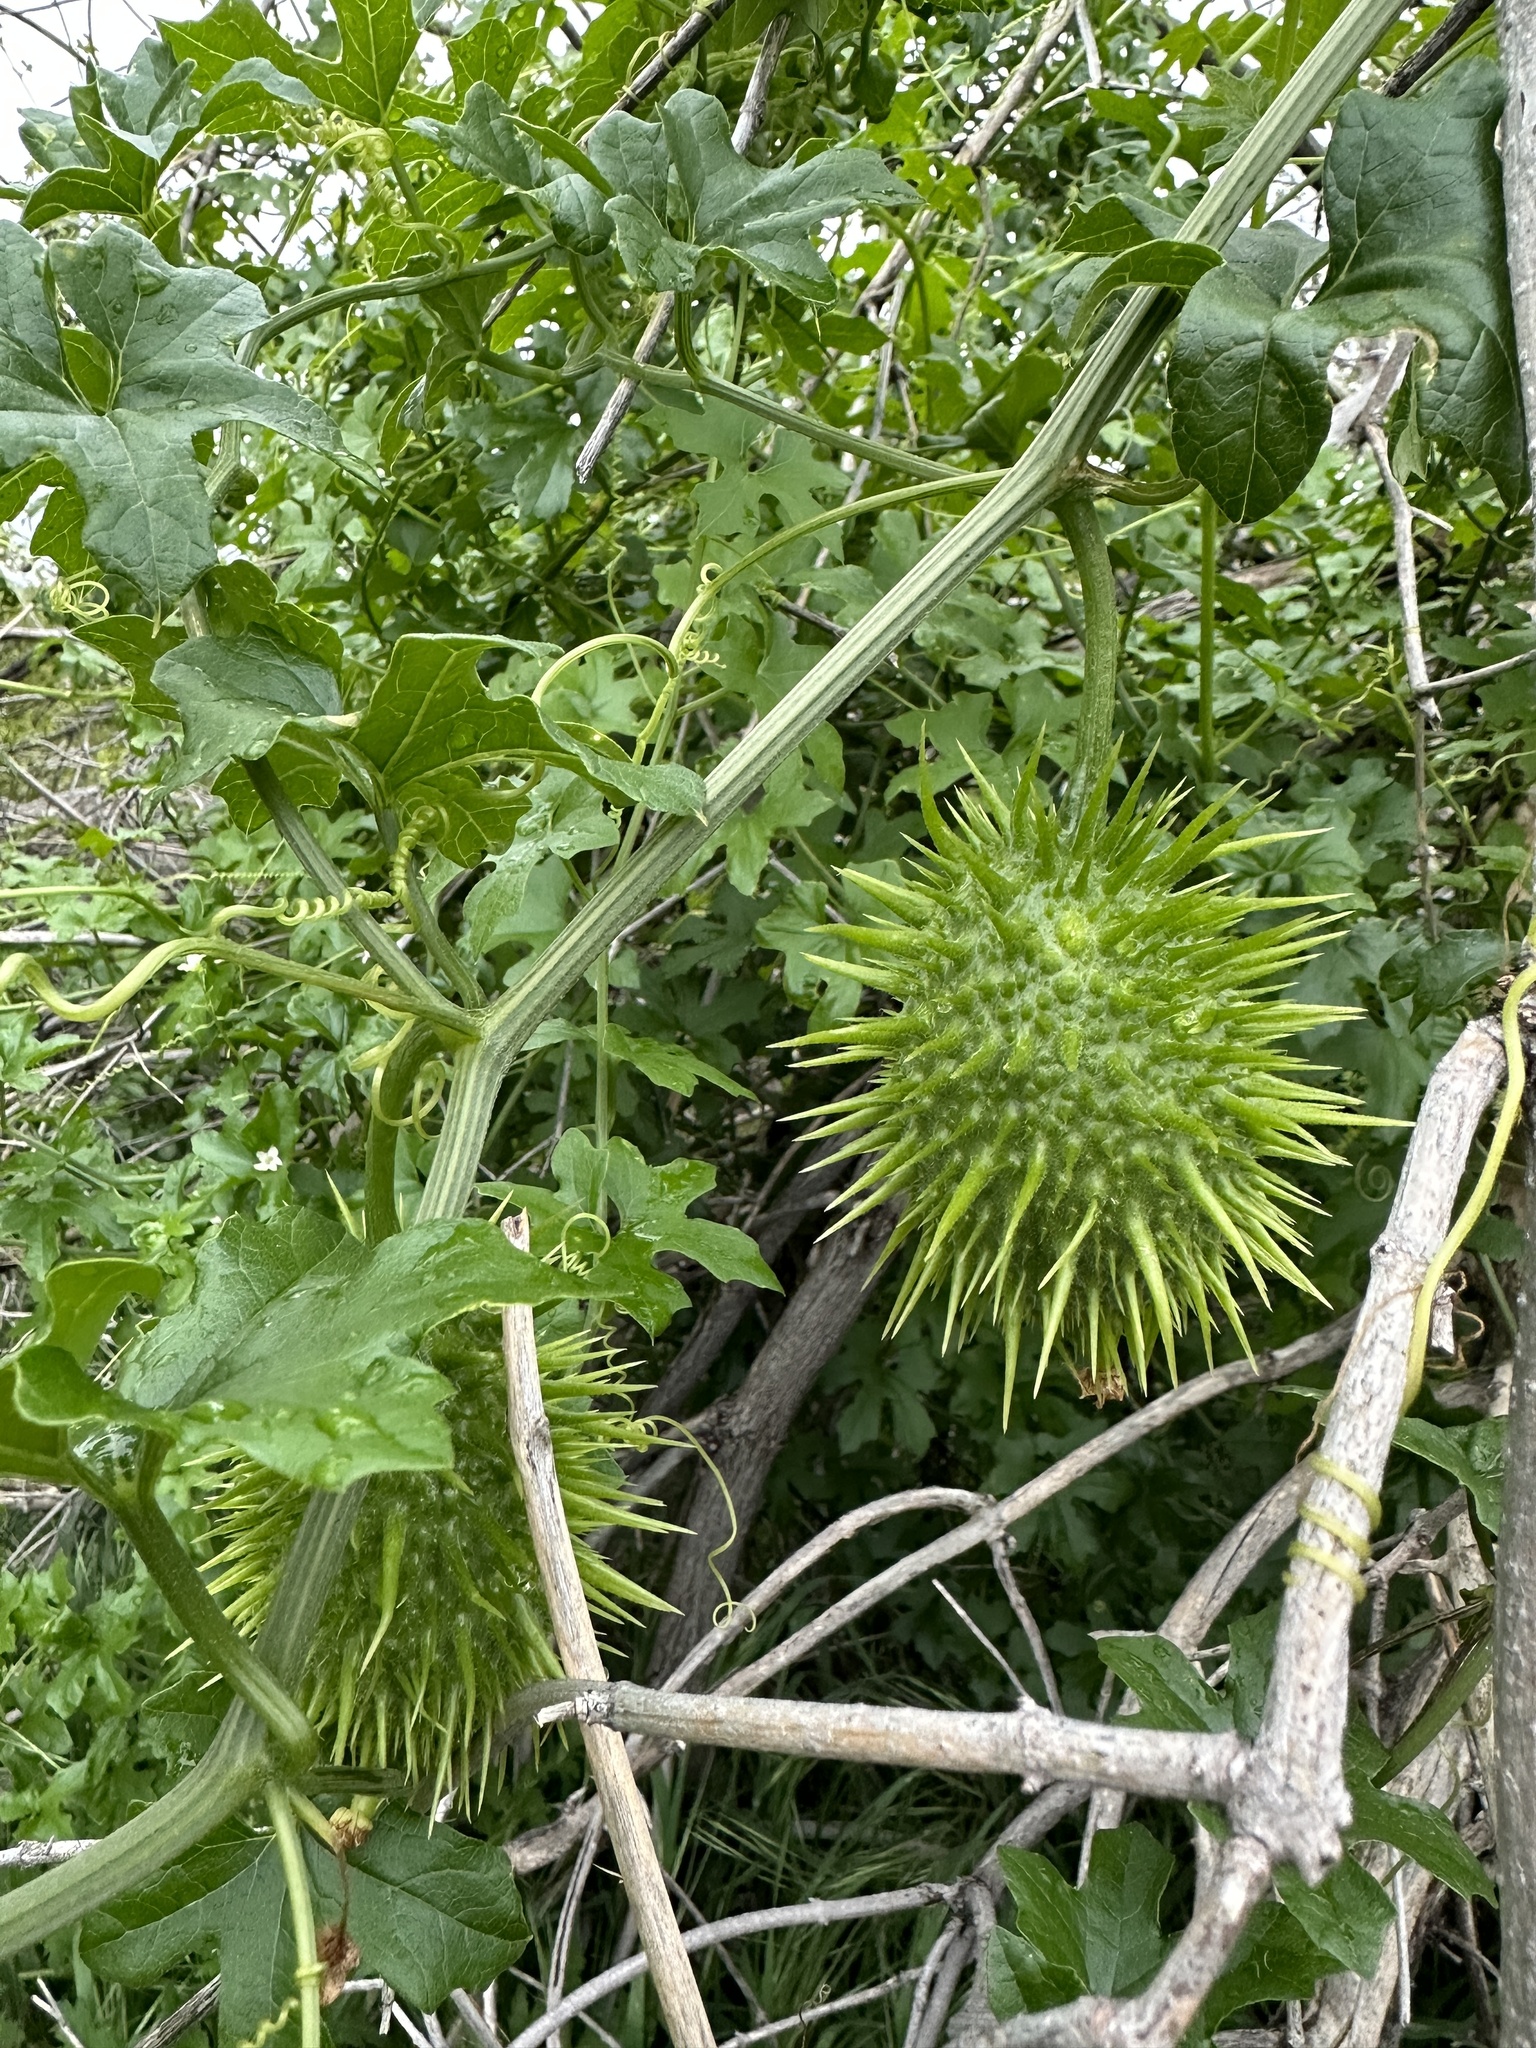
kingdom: Plantae
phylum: Tracheophyta
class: Magnoliopsida
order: Cucurbitales
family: Cucurbitaceae
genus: Marah
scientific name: Marah horrida
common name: Sierra manroot
